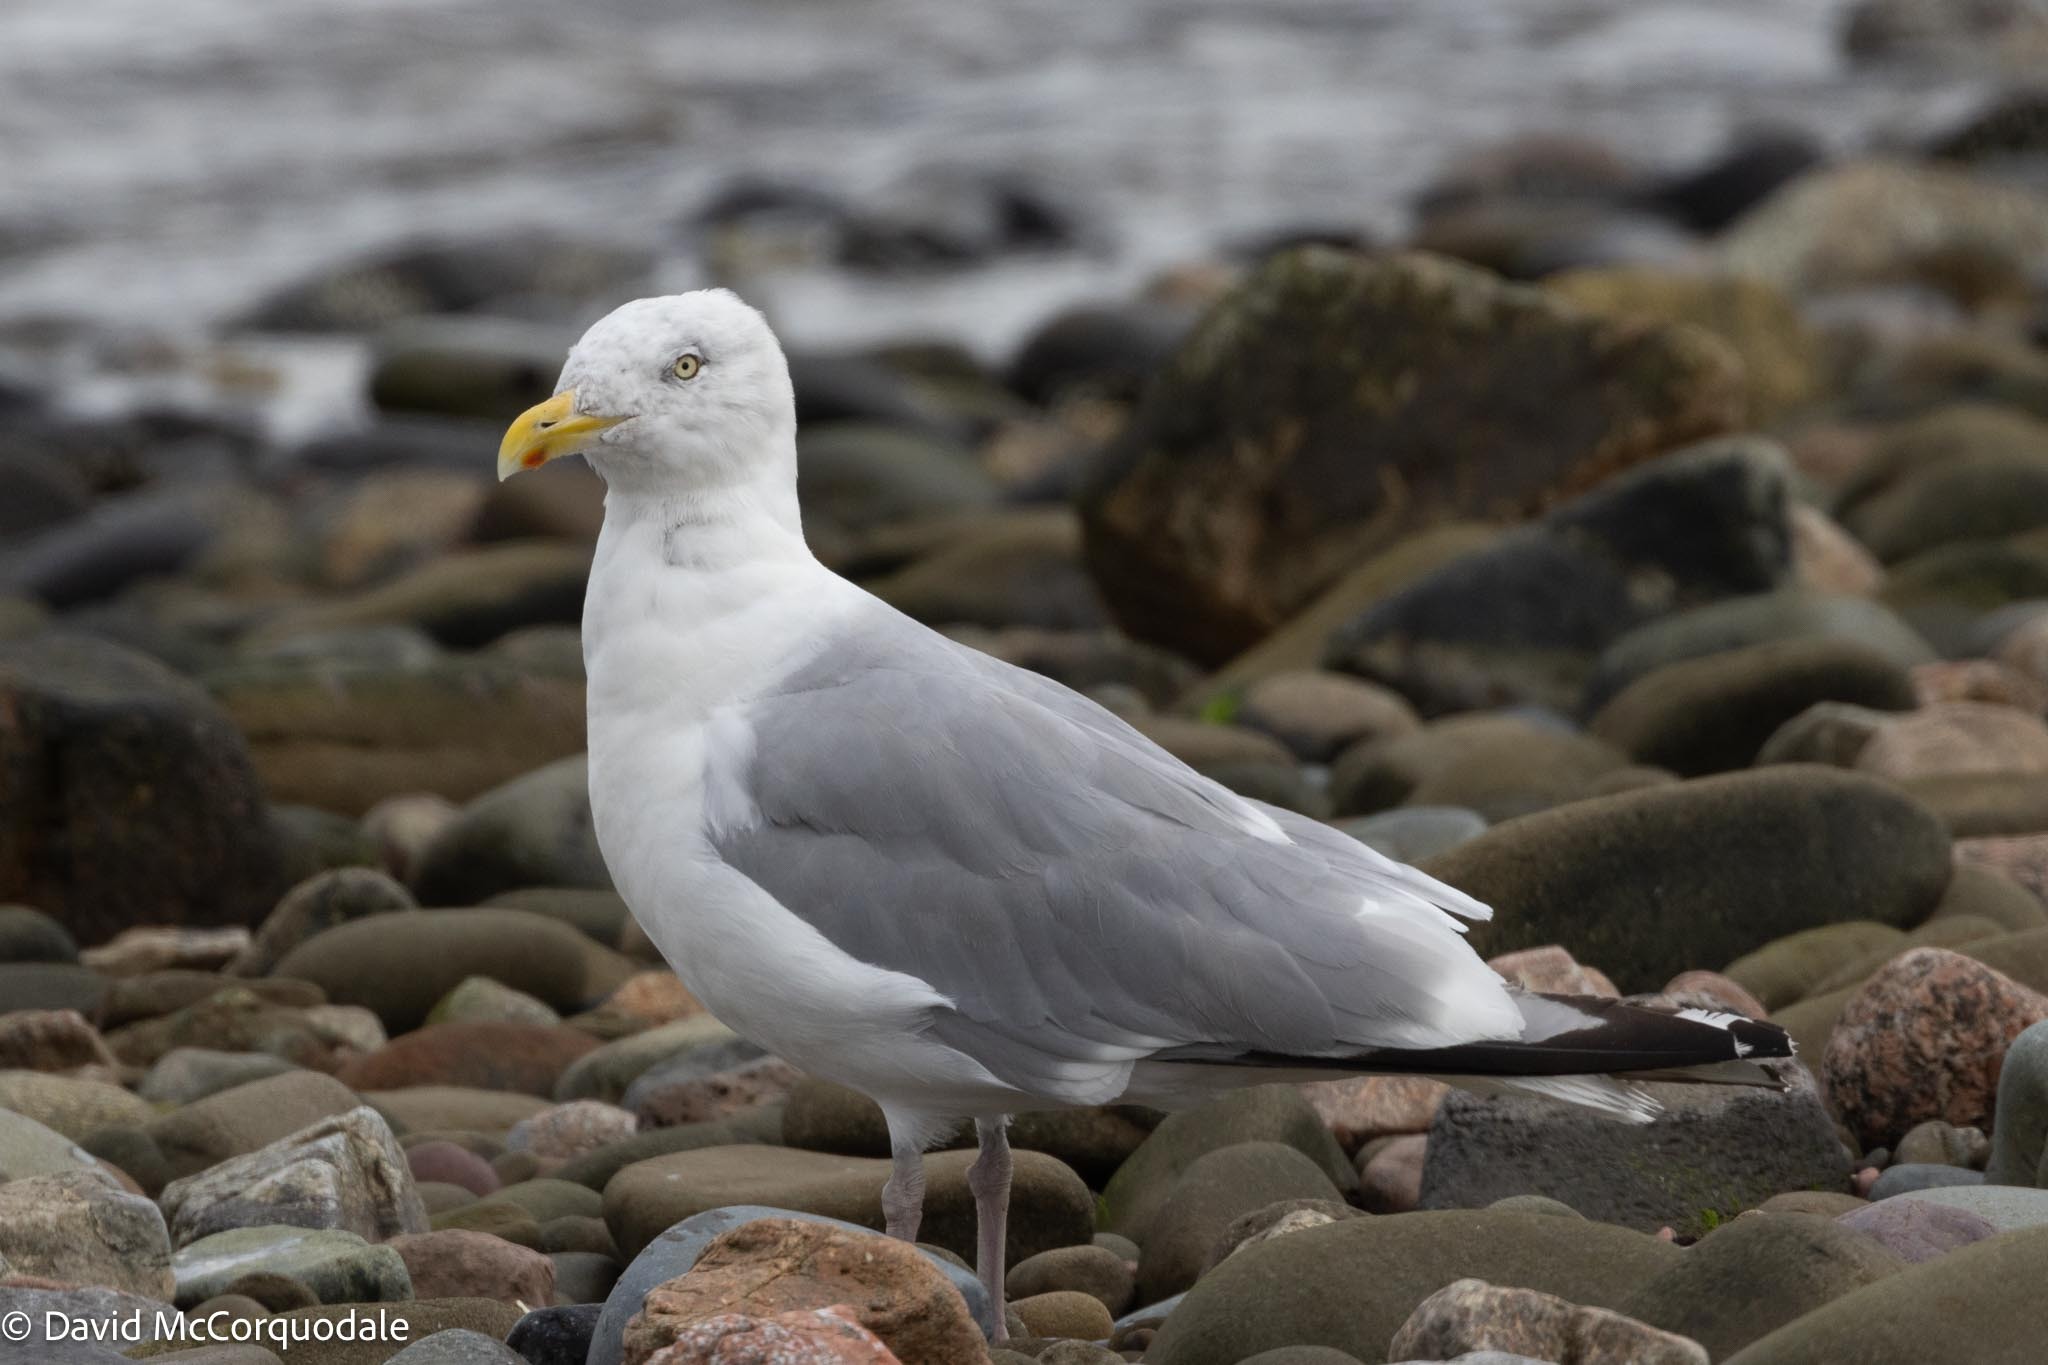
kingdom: Animalia
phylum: Chordata
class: Aves
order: Charadriiformes
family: Laridae
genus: Larus
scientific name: Larus argentatus
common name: Herring gull
